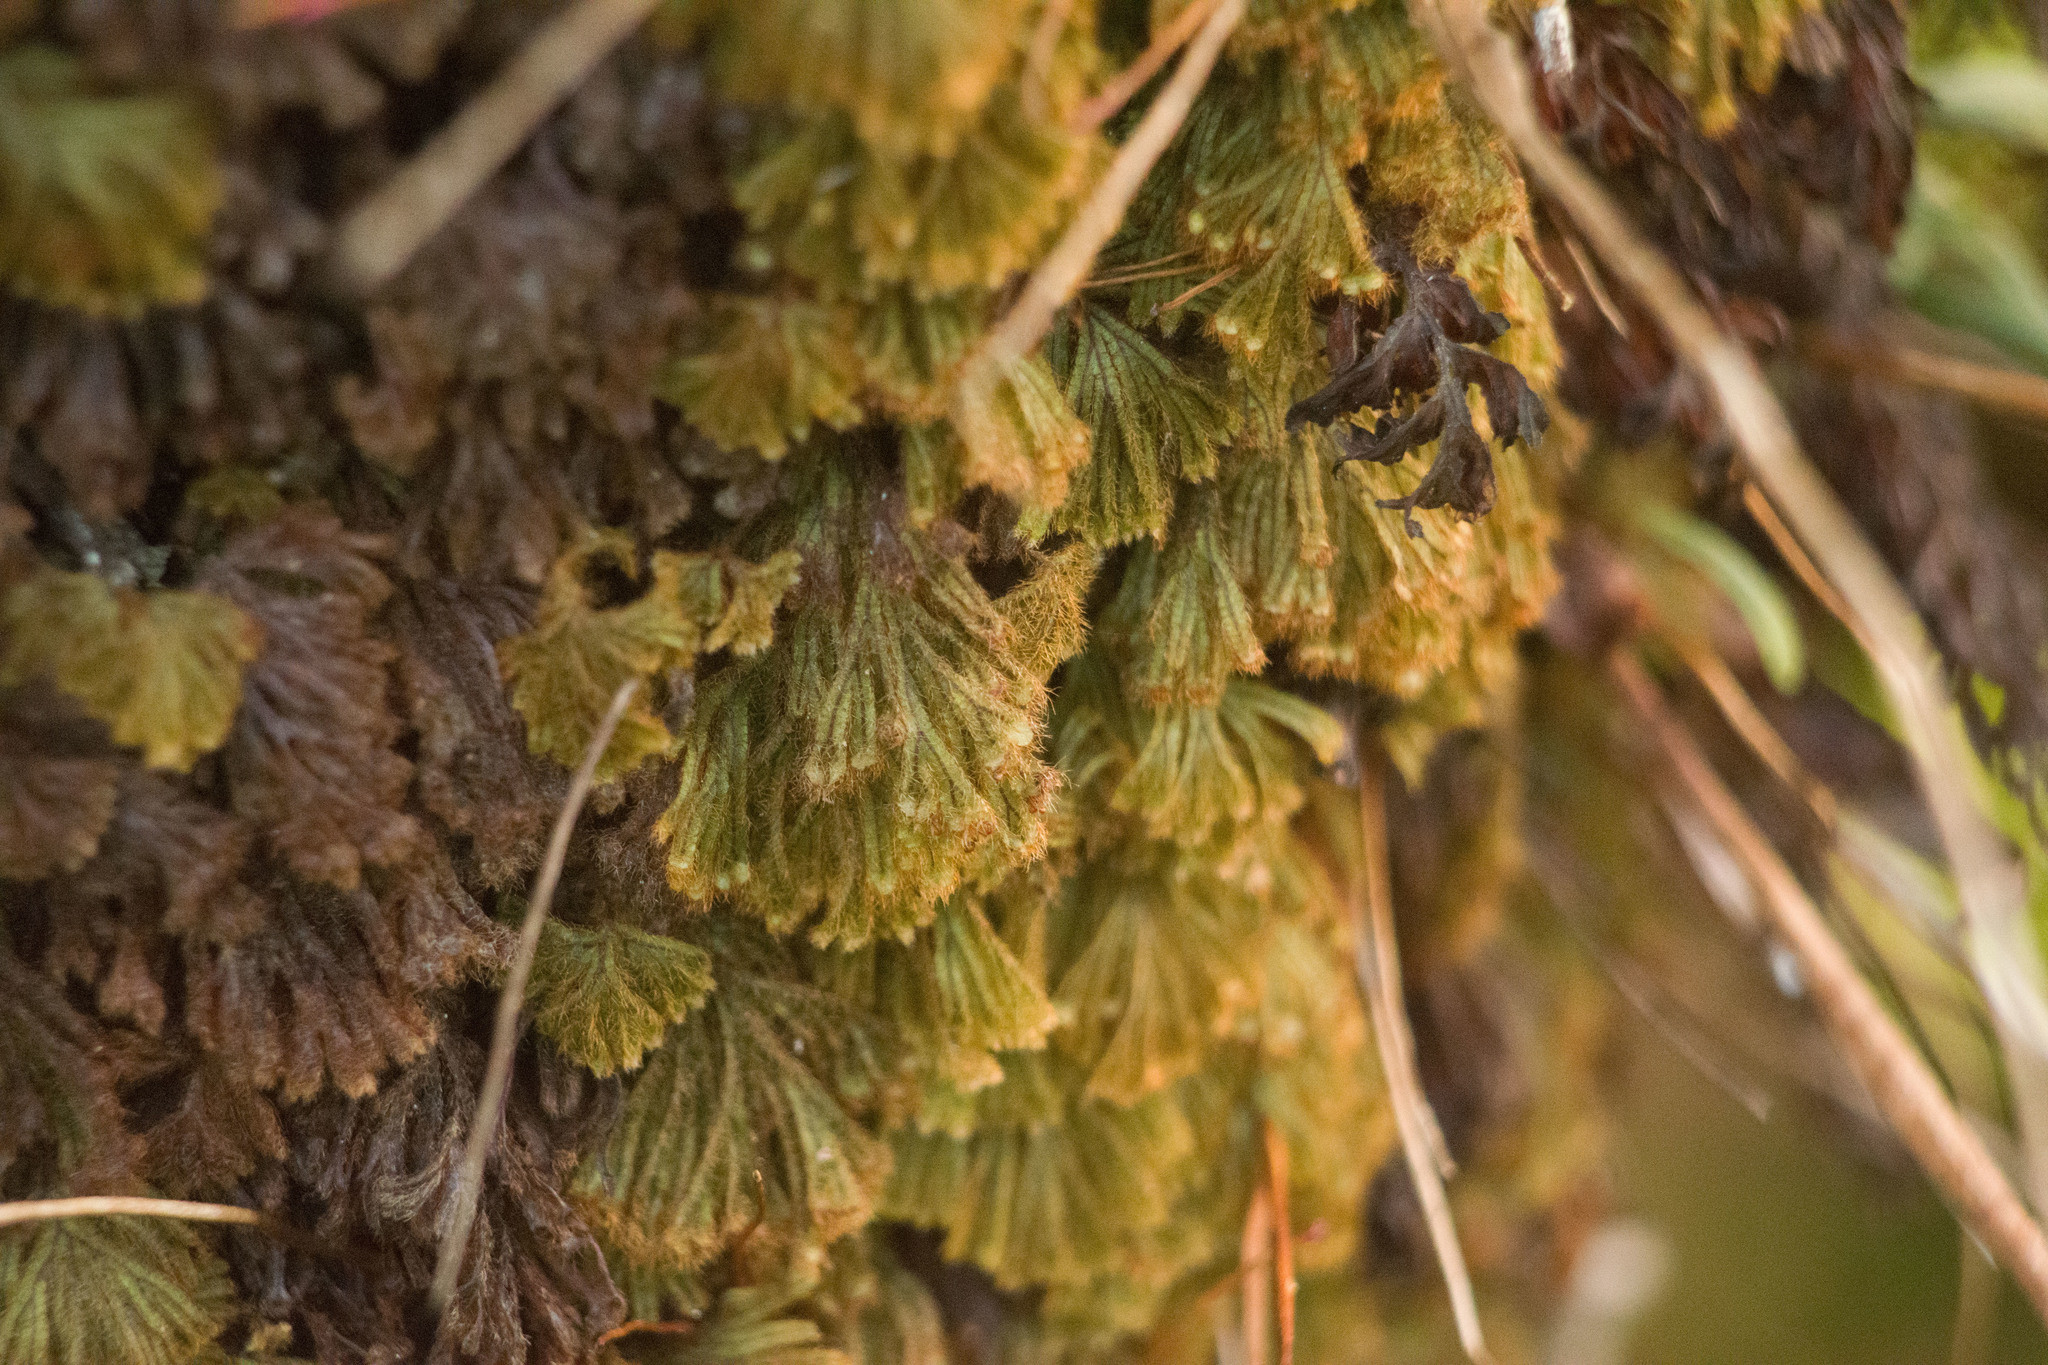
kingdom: Plantae
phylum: Tracheophyta
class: Polypodiopsida
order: Hymenophyllales
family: Hymenophyllaceae
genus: Hymenophyllum
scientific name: Hymenophyllum obtusum
